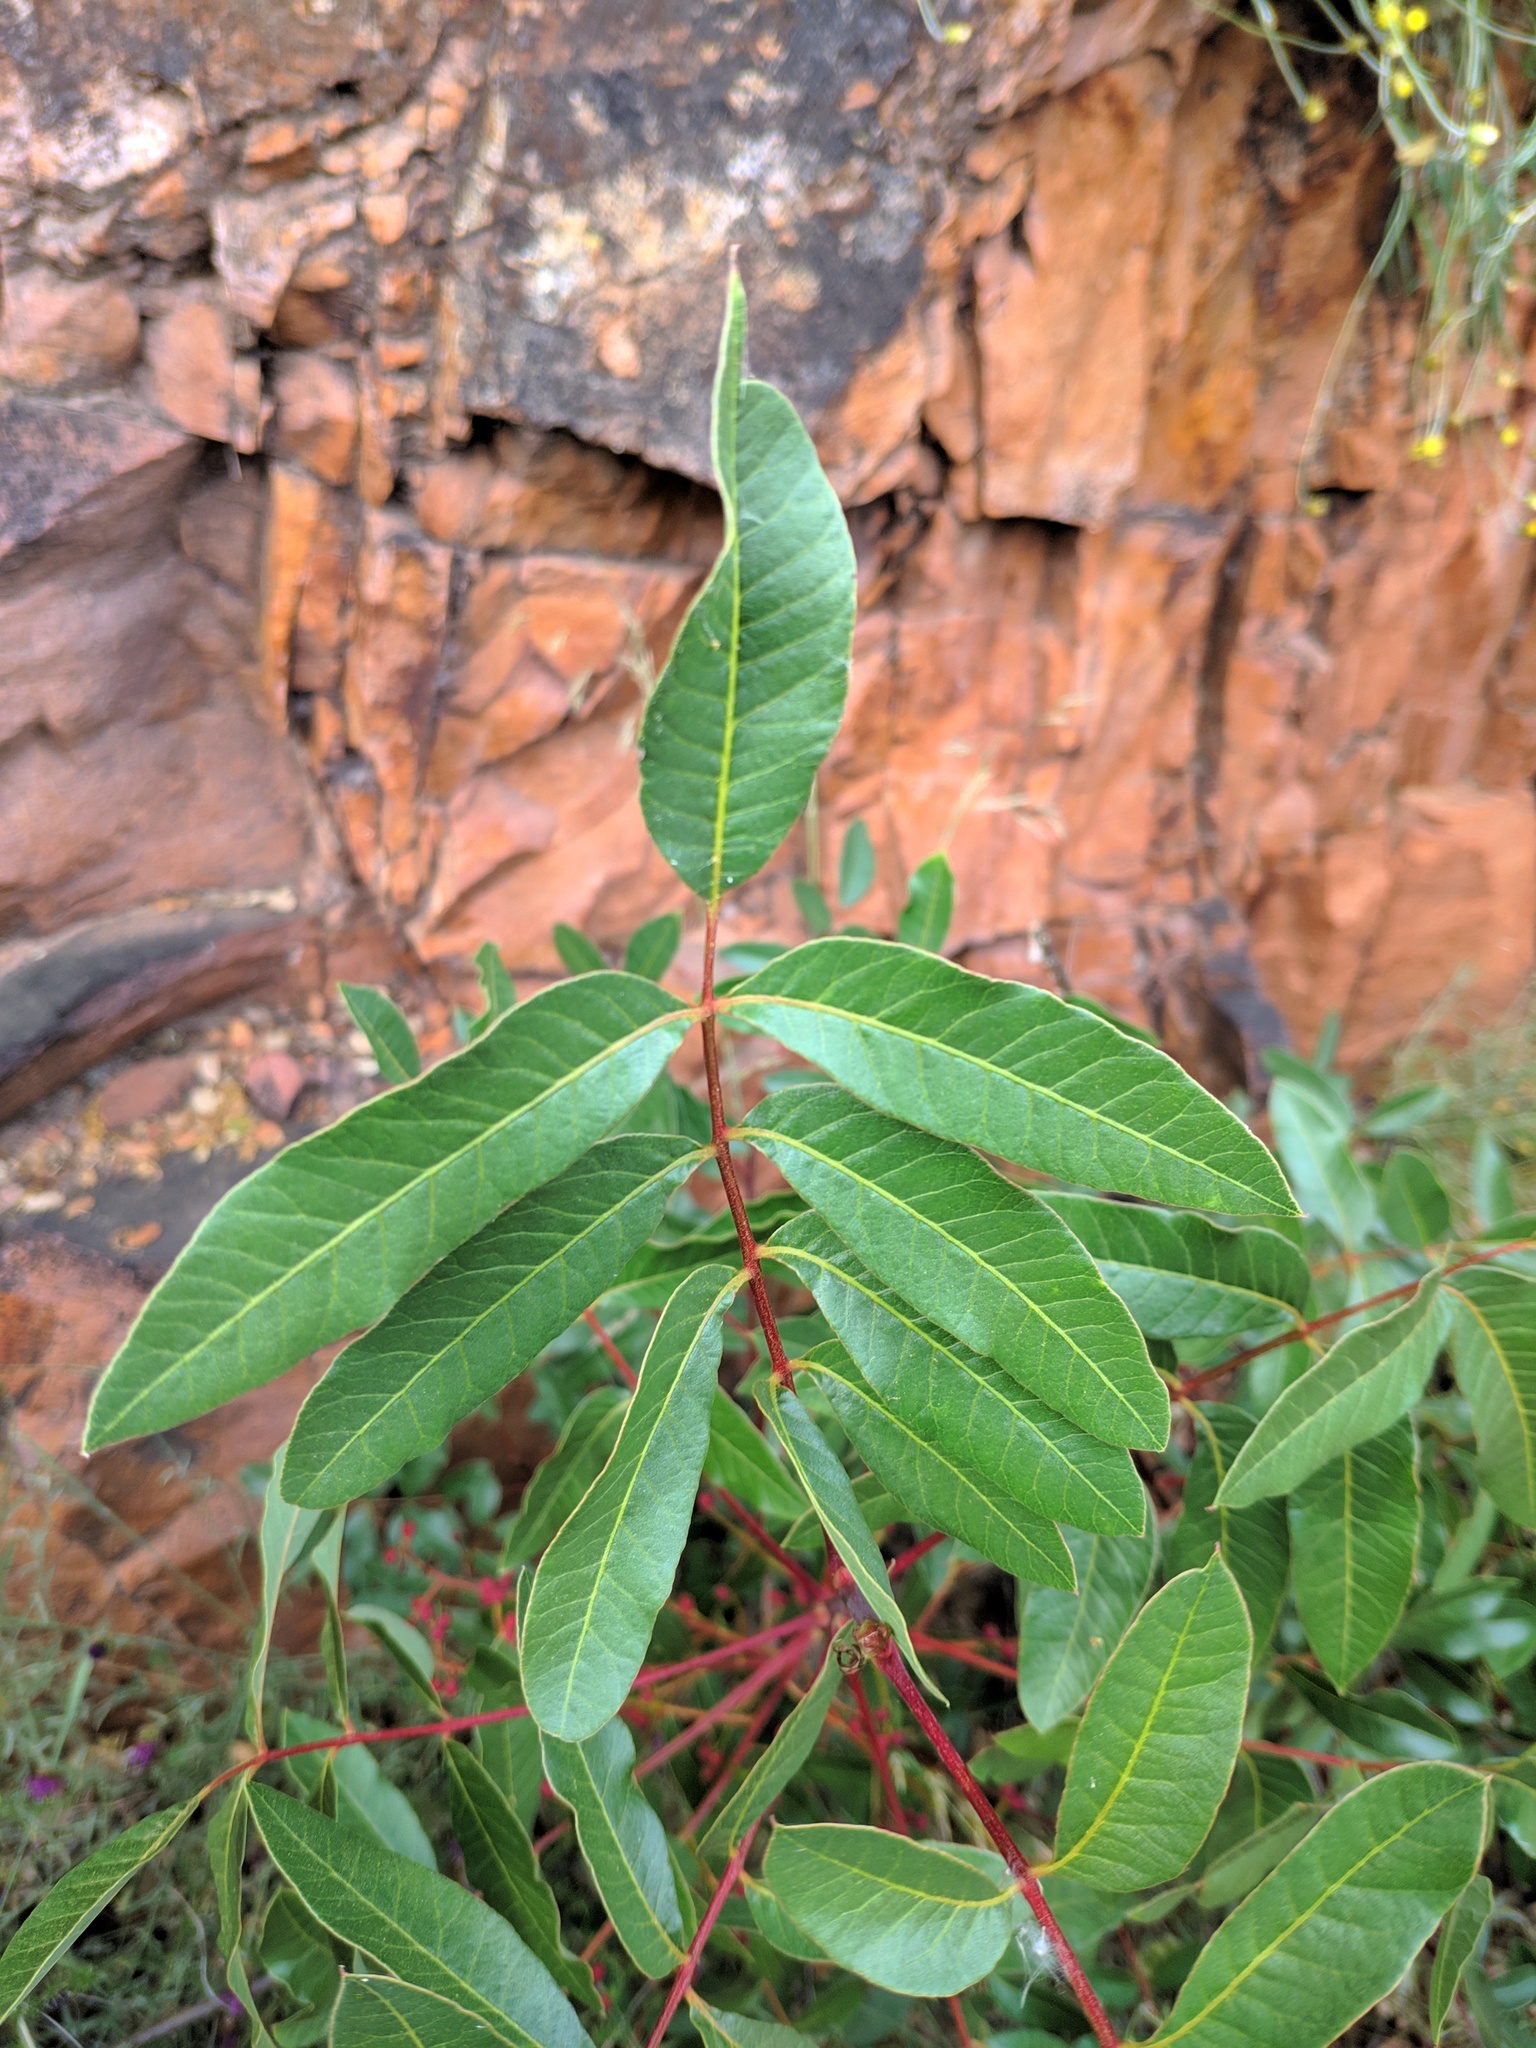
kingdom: Plantae
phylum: Tracheophyta
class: Magnoliopsida
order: Sapindales
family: Anacardiaceae
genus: Pistacia
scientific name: Pistacia terebinthus
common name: Terebinth
